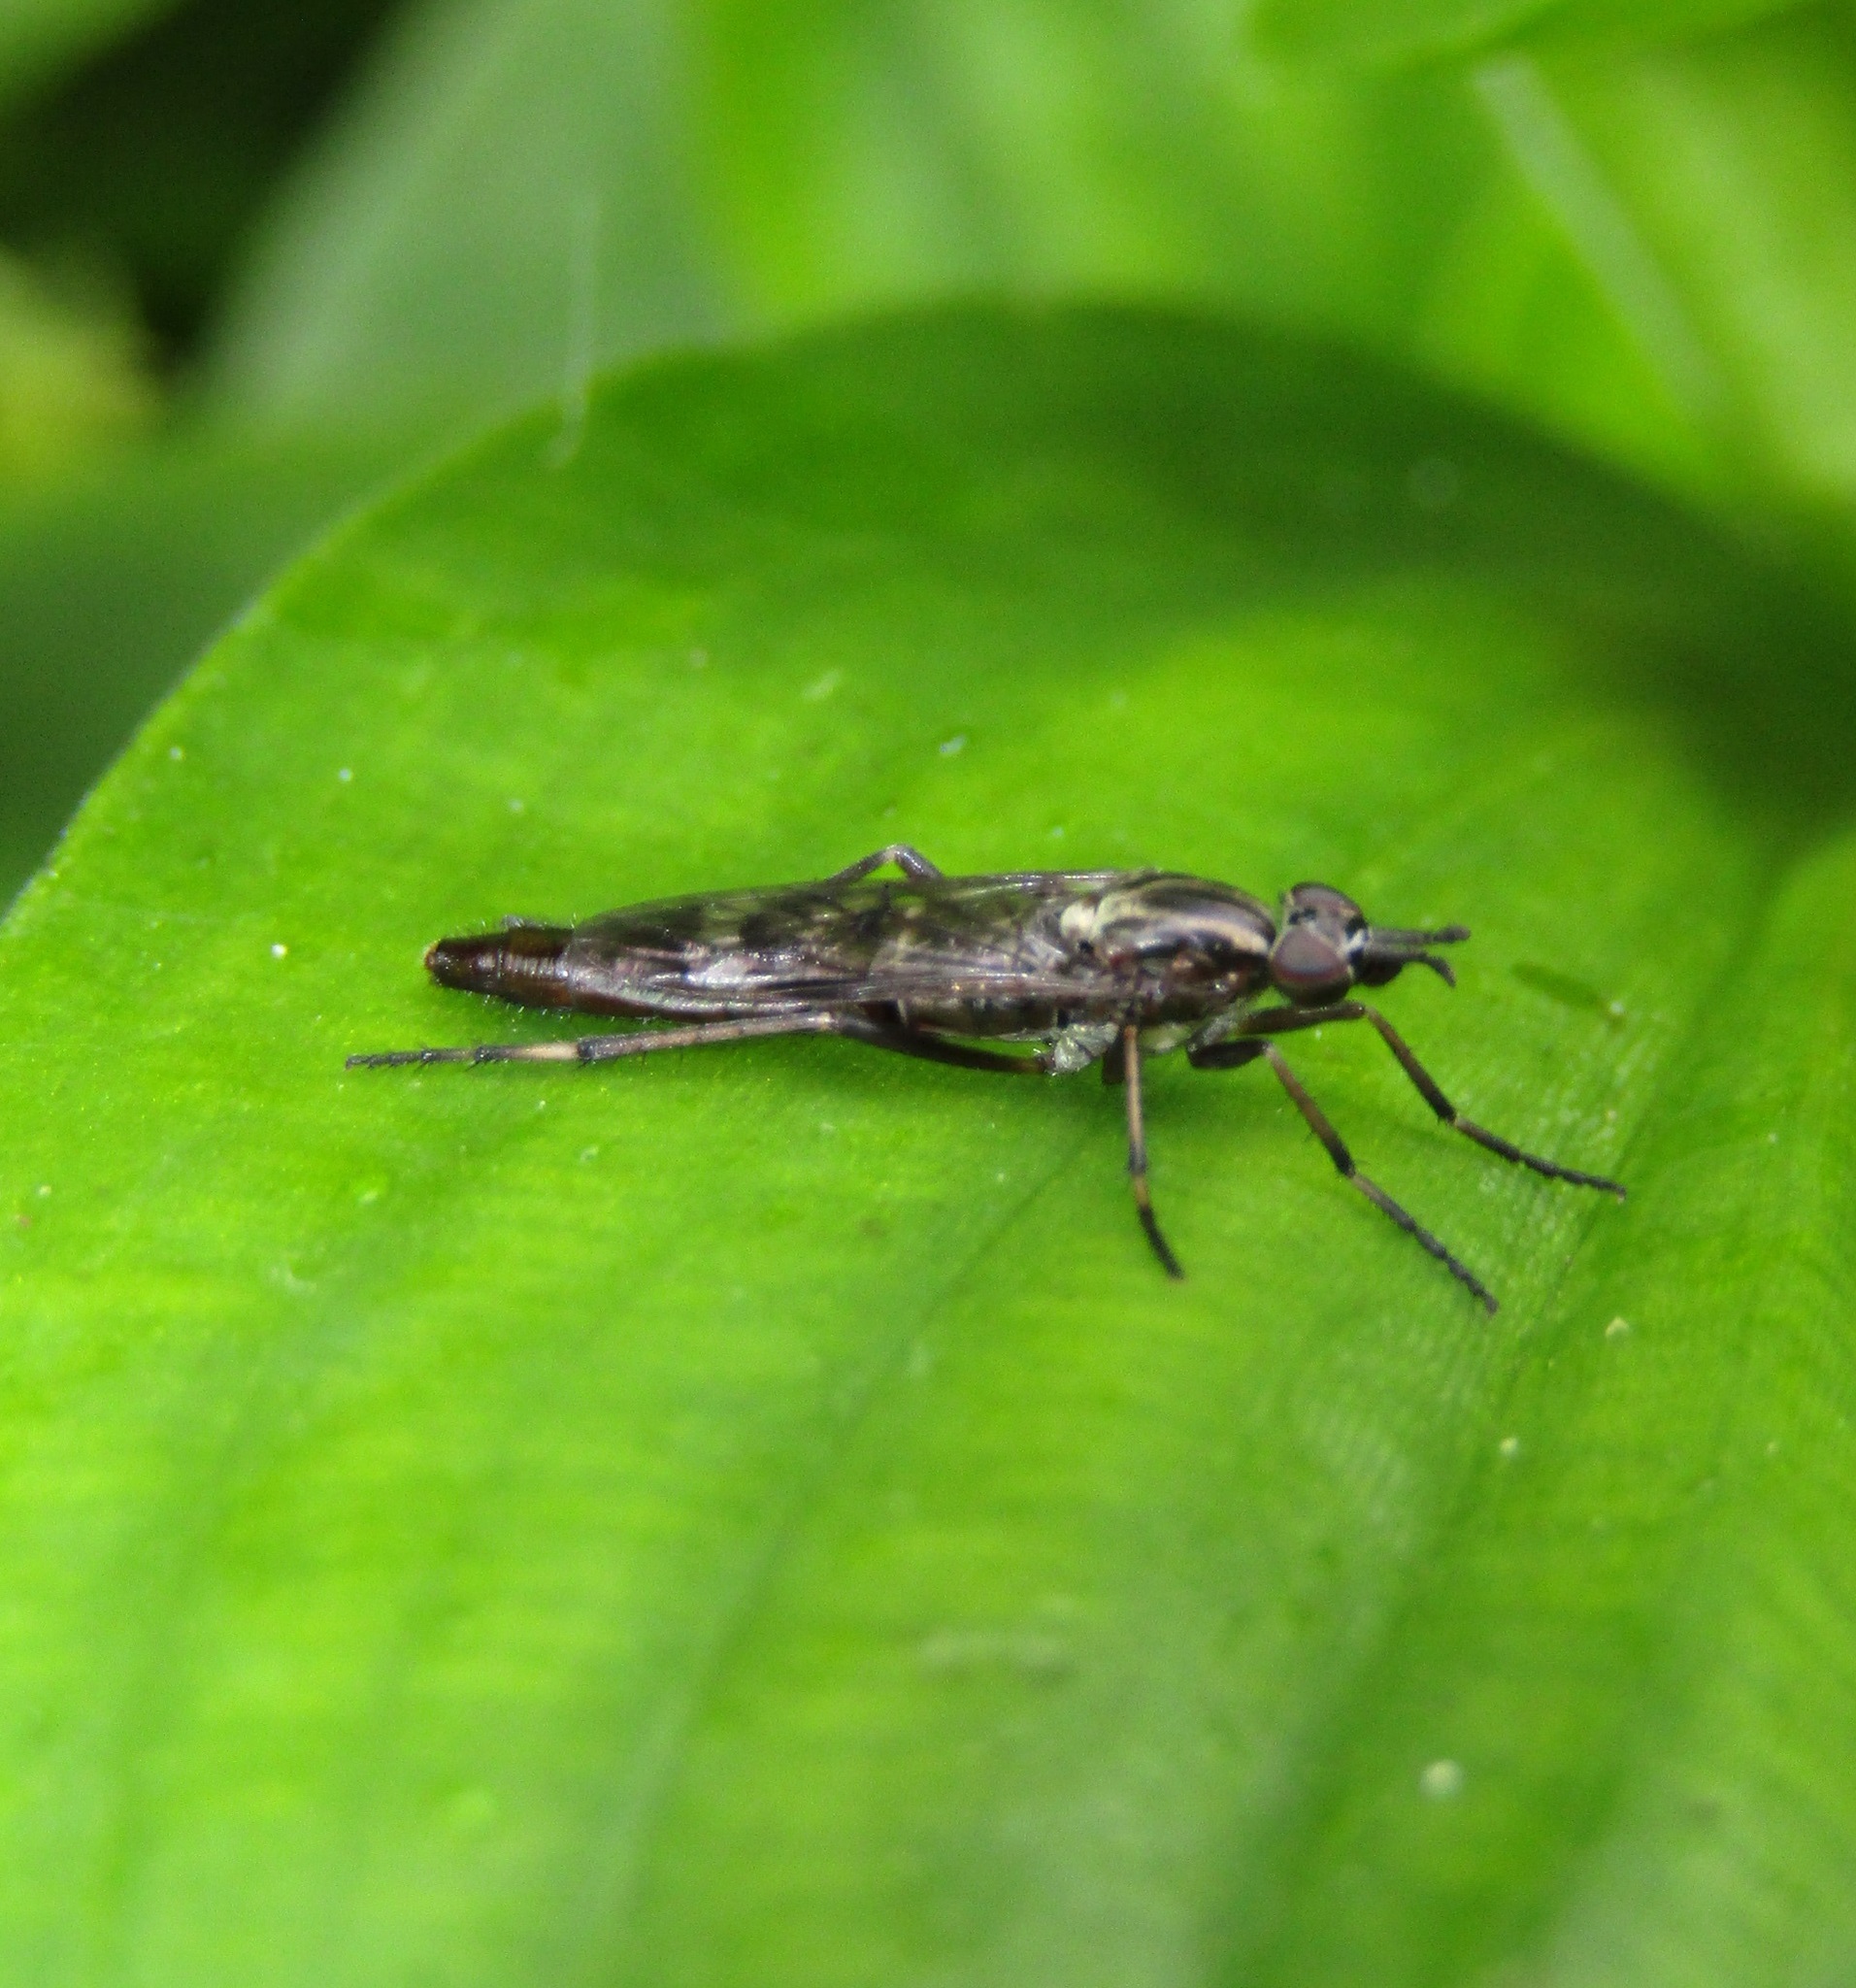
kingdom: Animalia
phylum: Arthropoda
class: Insecta
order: Diptera
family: Therevidae
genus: Anabarhynchus
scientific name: Anabarhynchus cupreus
